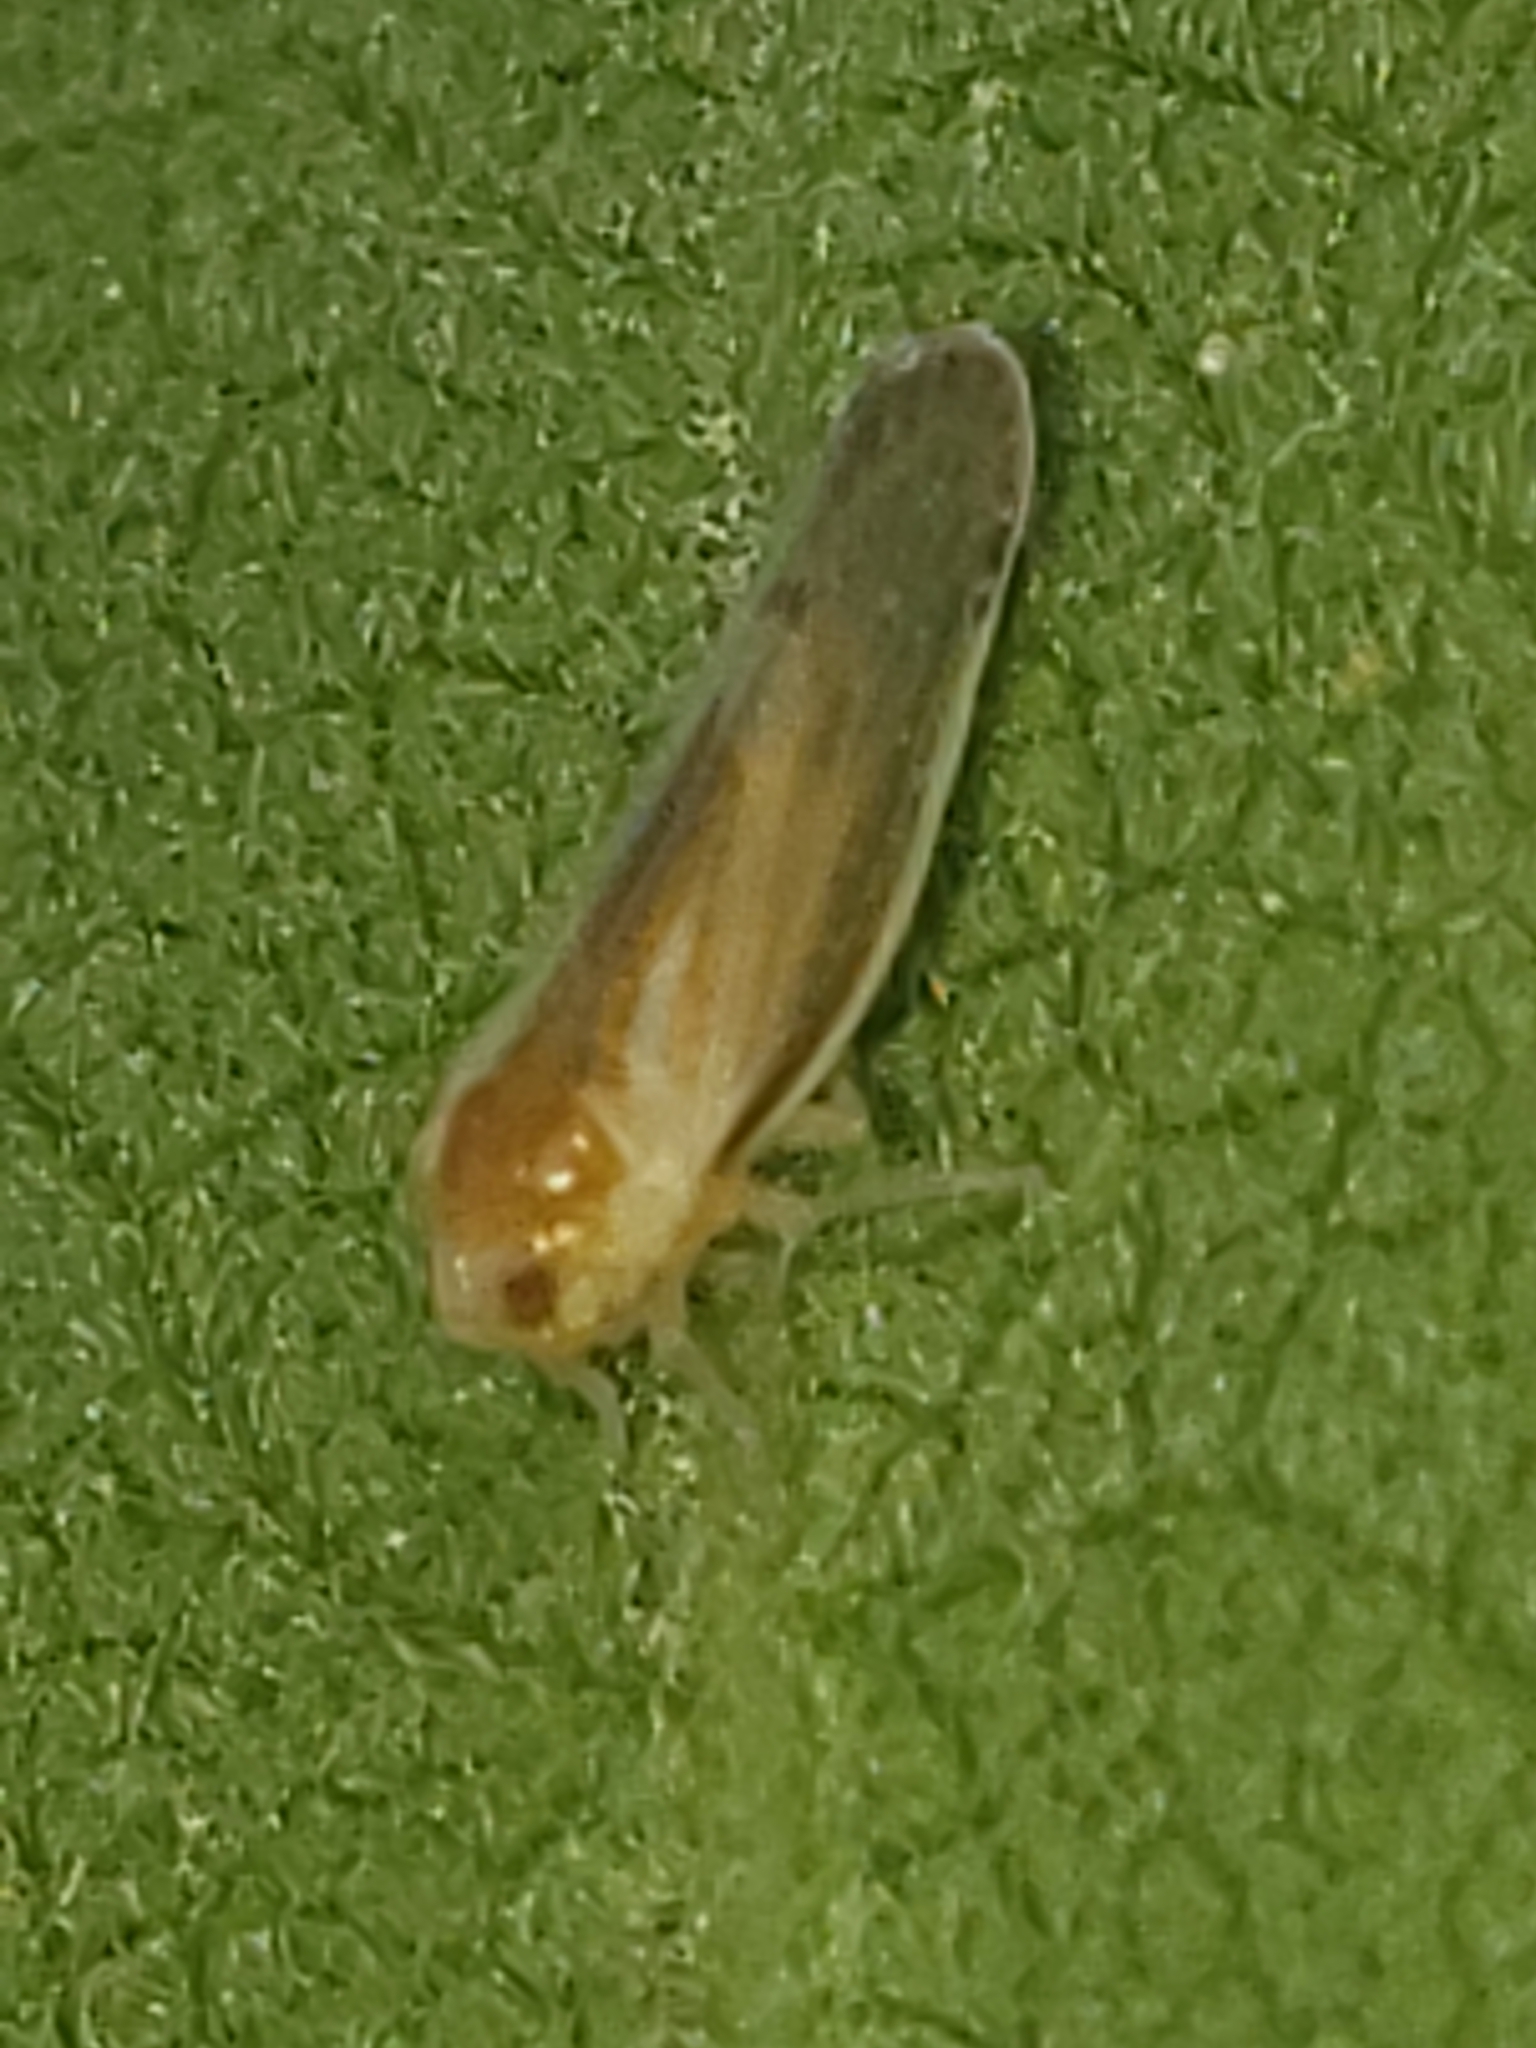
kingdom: Animalia
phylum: Arthropoda
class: Insecta
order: Hemiptera
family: Derbidae
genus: Omolicna
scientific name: Omolicna uhleri
